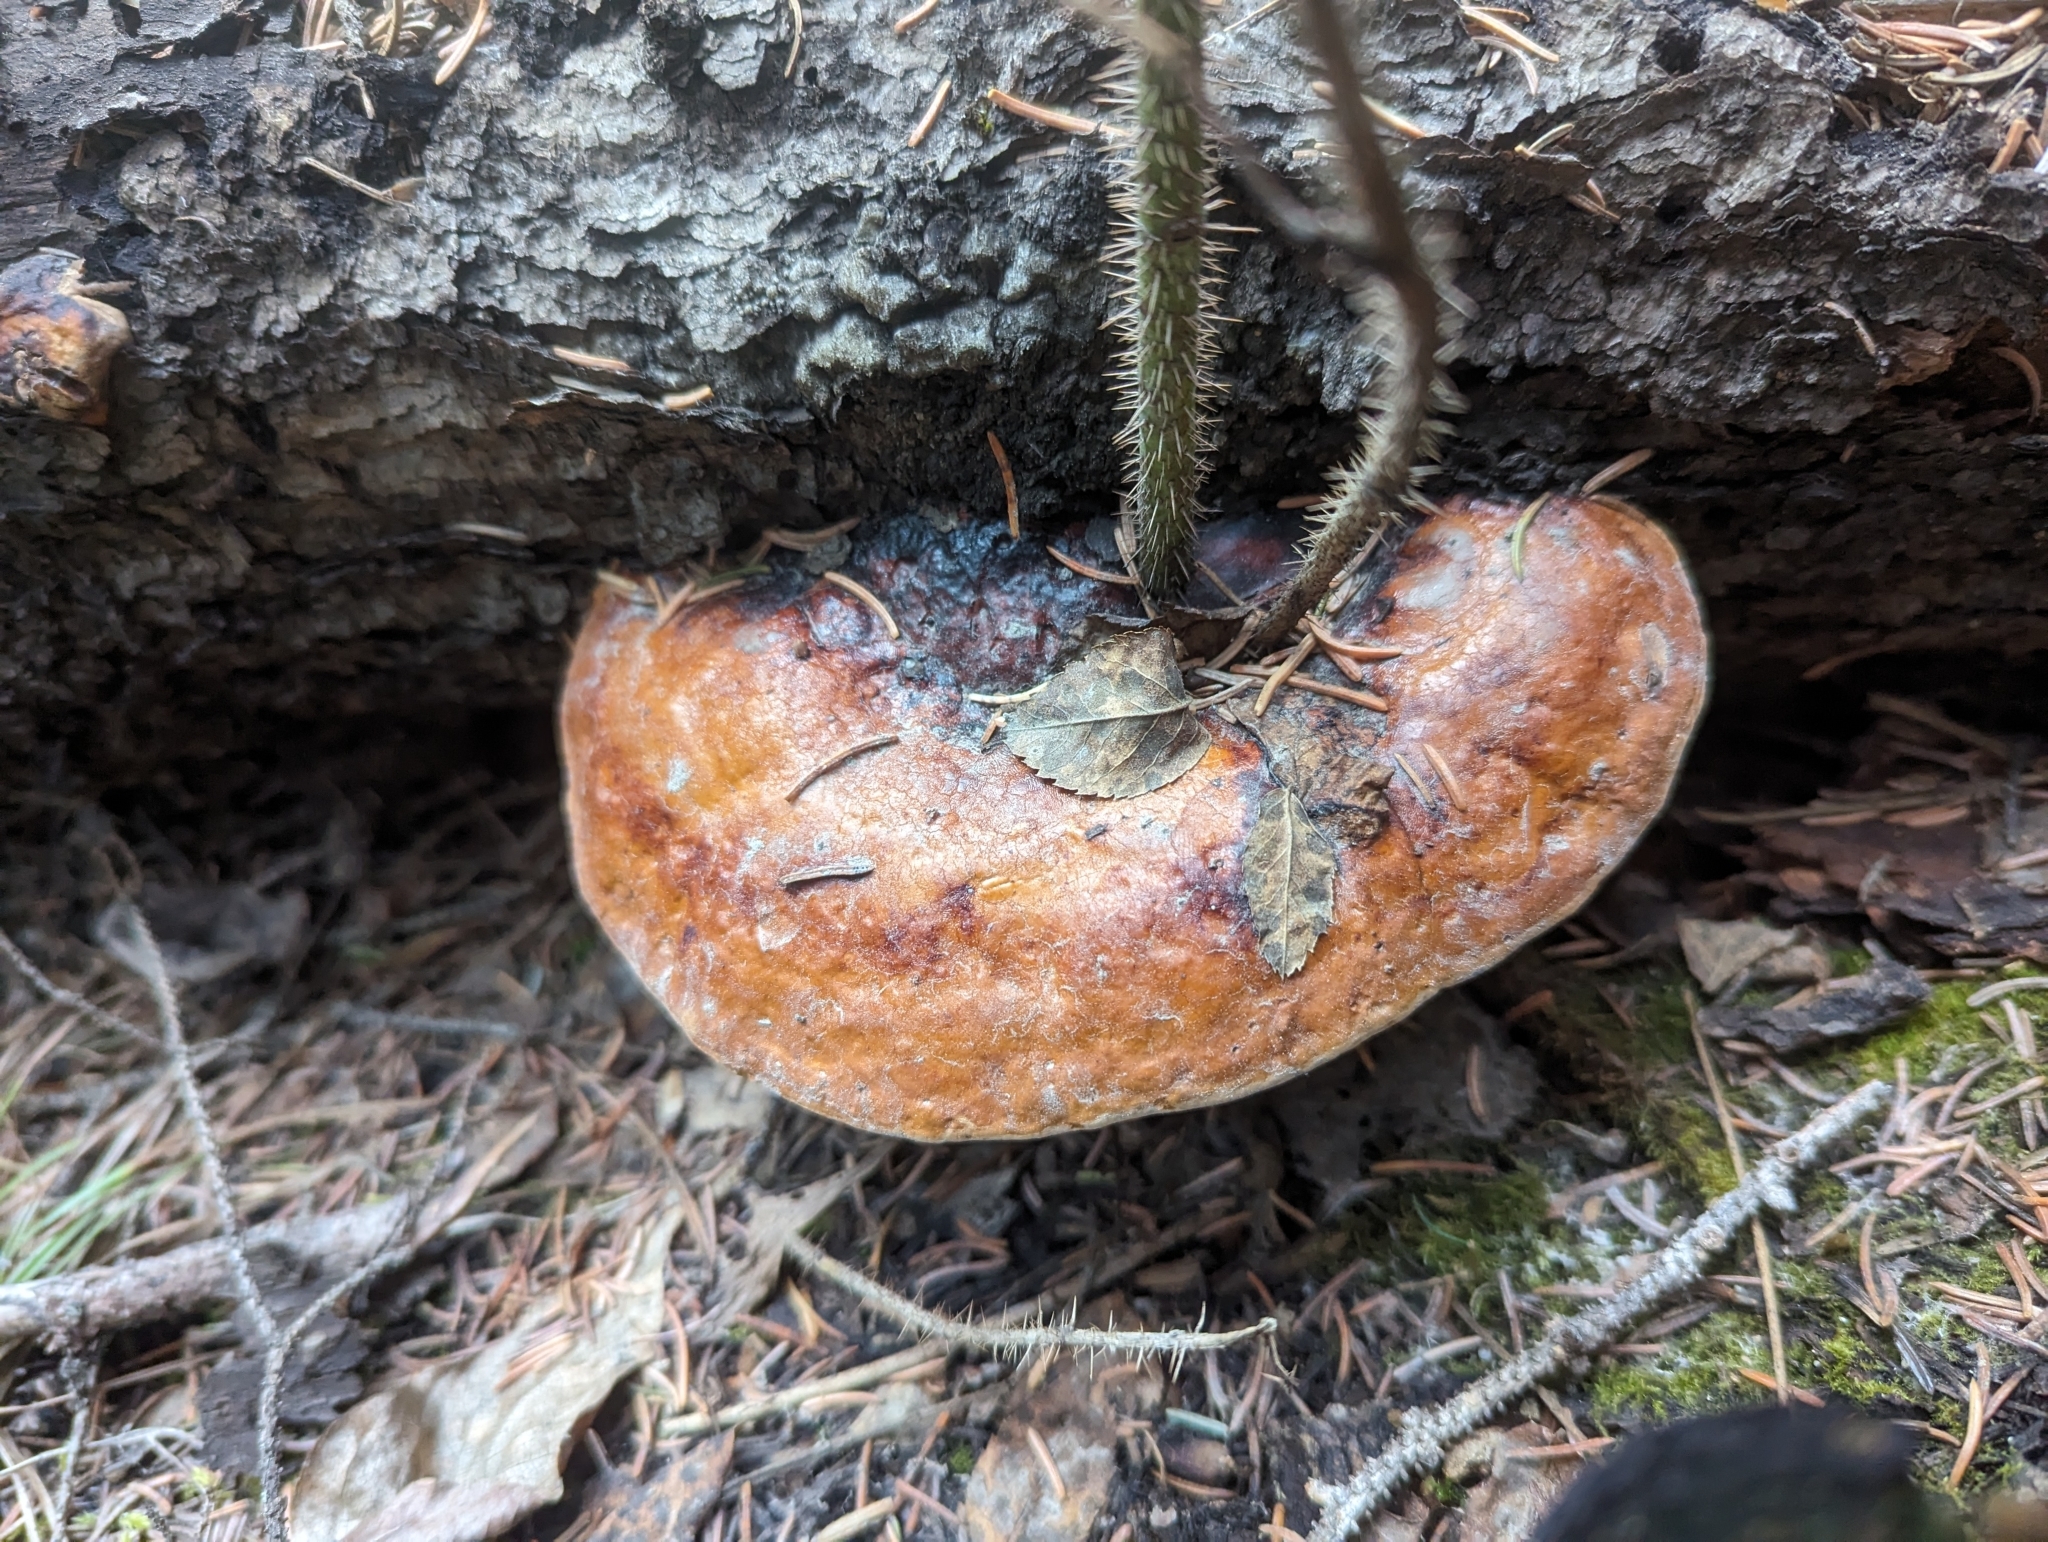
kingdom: Fungi
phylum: Basidiomycota
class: Agaricomycetes
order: Polyporales
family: Fomitopsidaceae
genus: Fomitopsis
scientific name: Fomitopsis mounceae
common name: Northern red belt
